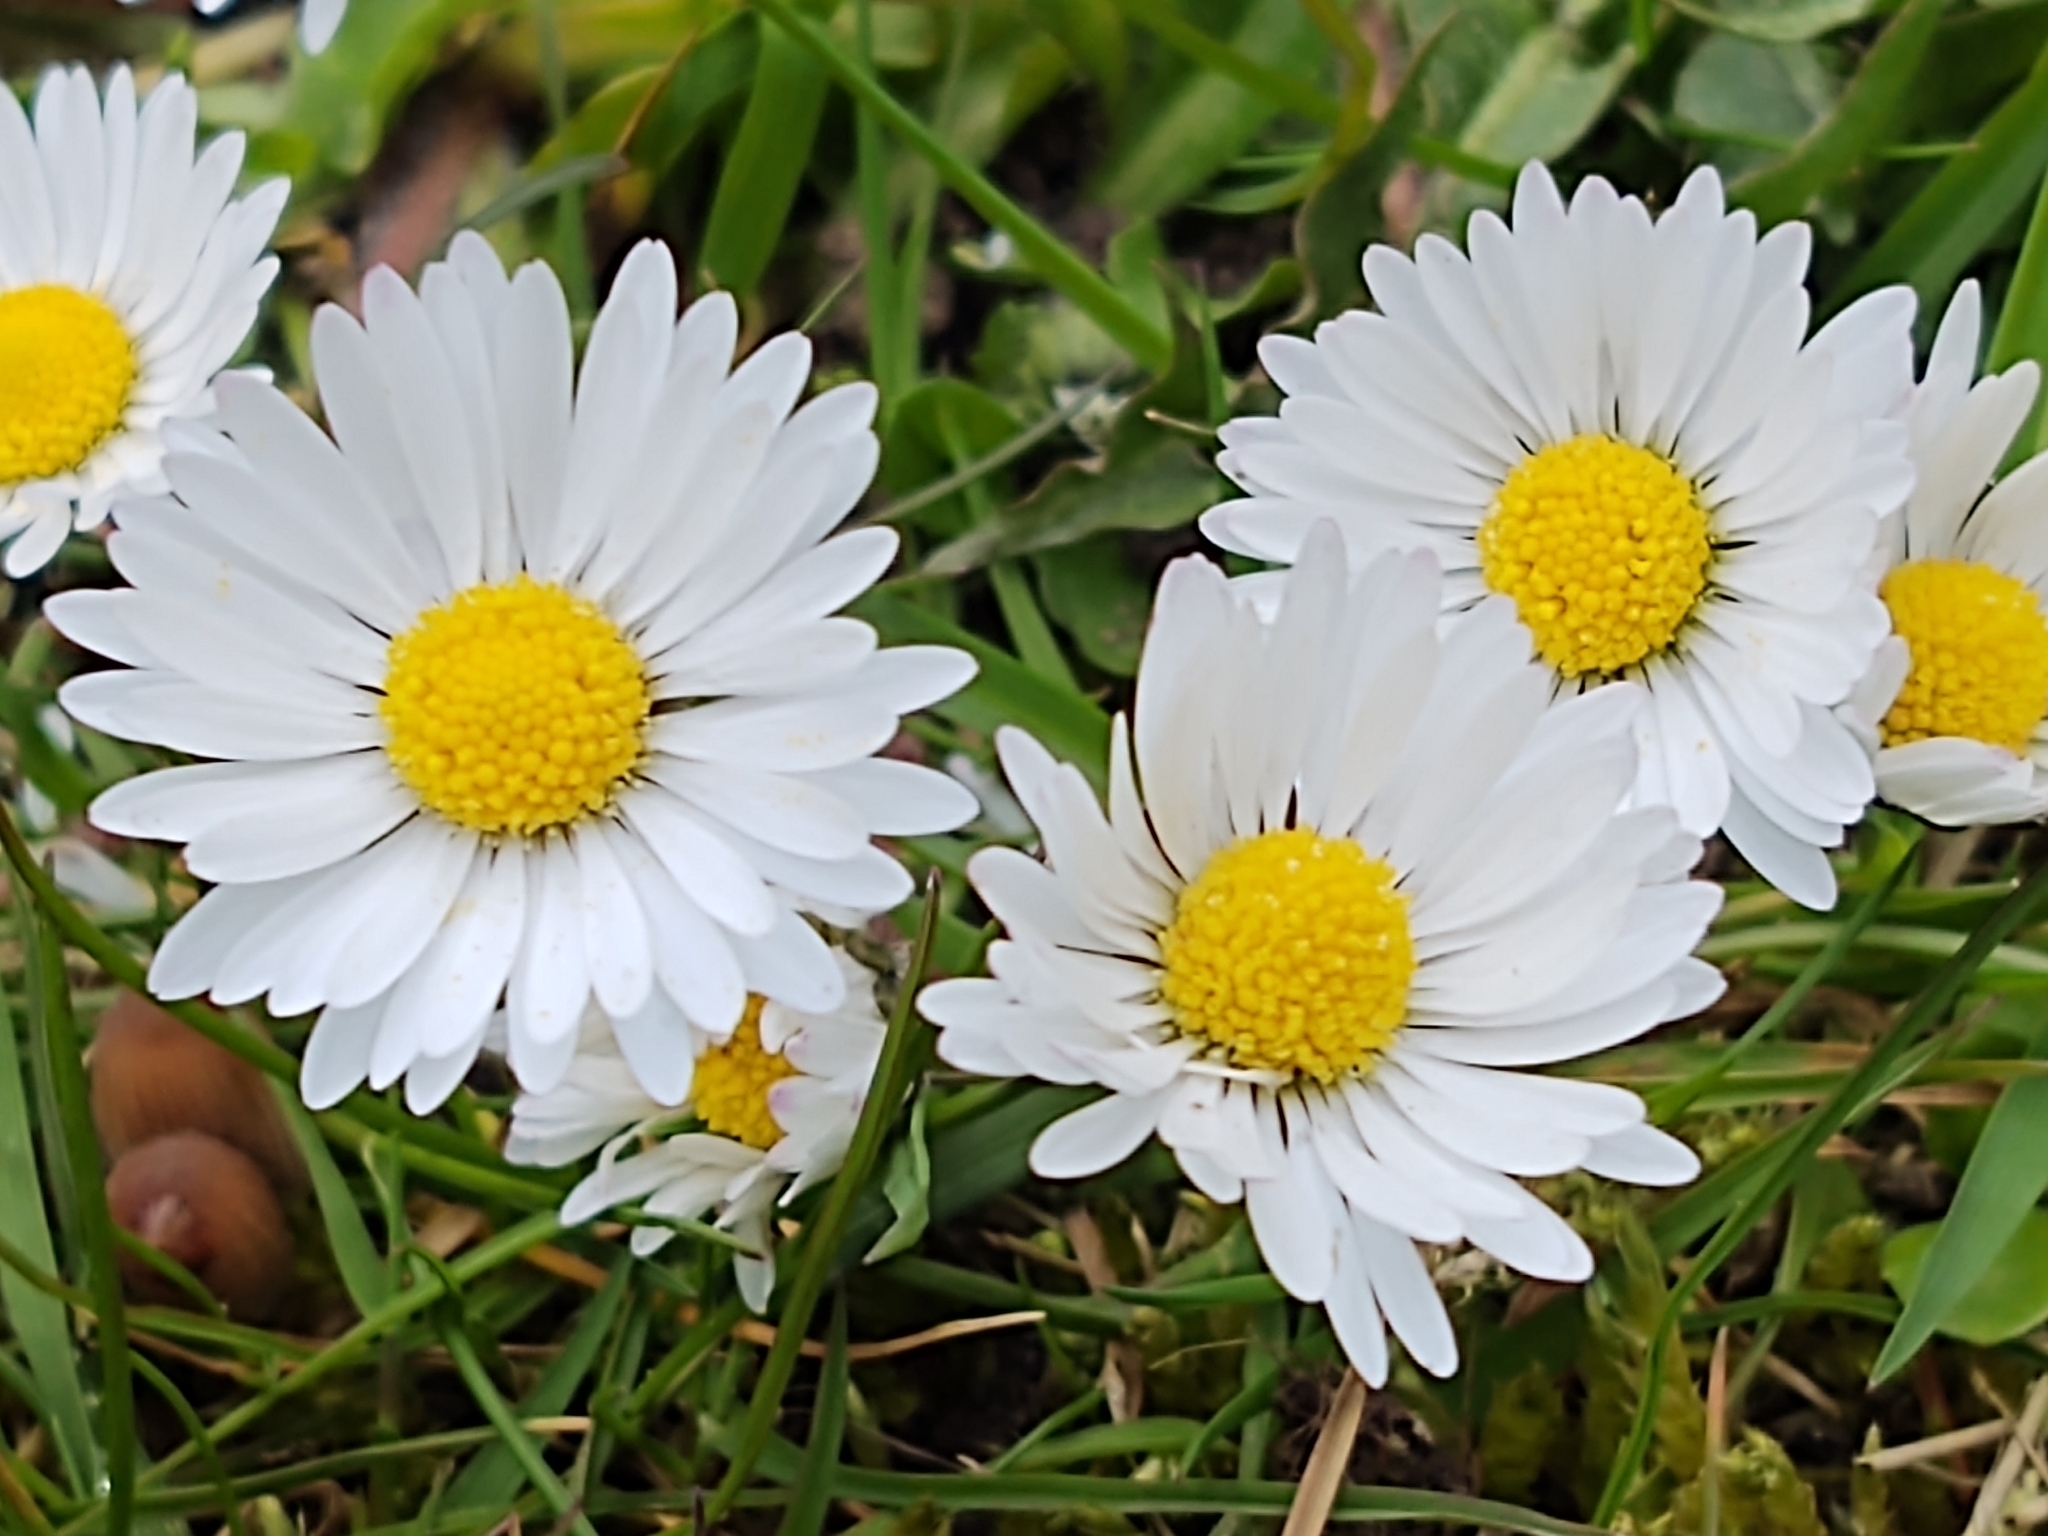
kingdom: Plantae
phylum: Tracheophyta
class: Magnoliopsida
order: Asterales
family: Asteraceae
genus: Bellis
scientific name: Bellis perennis
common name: Lawndaisy
